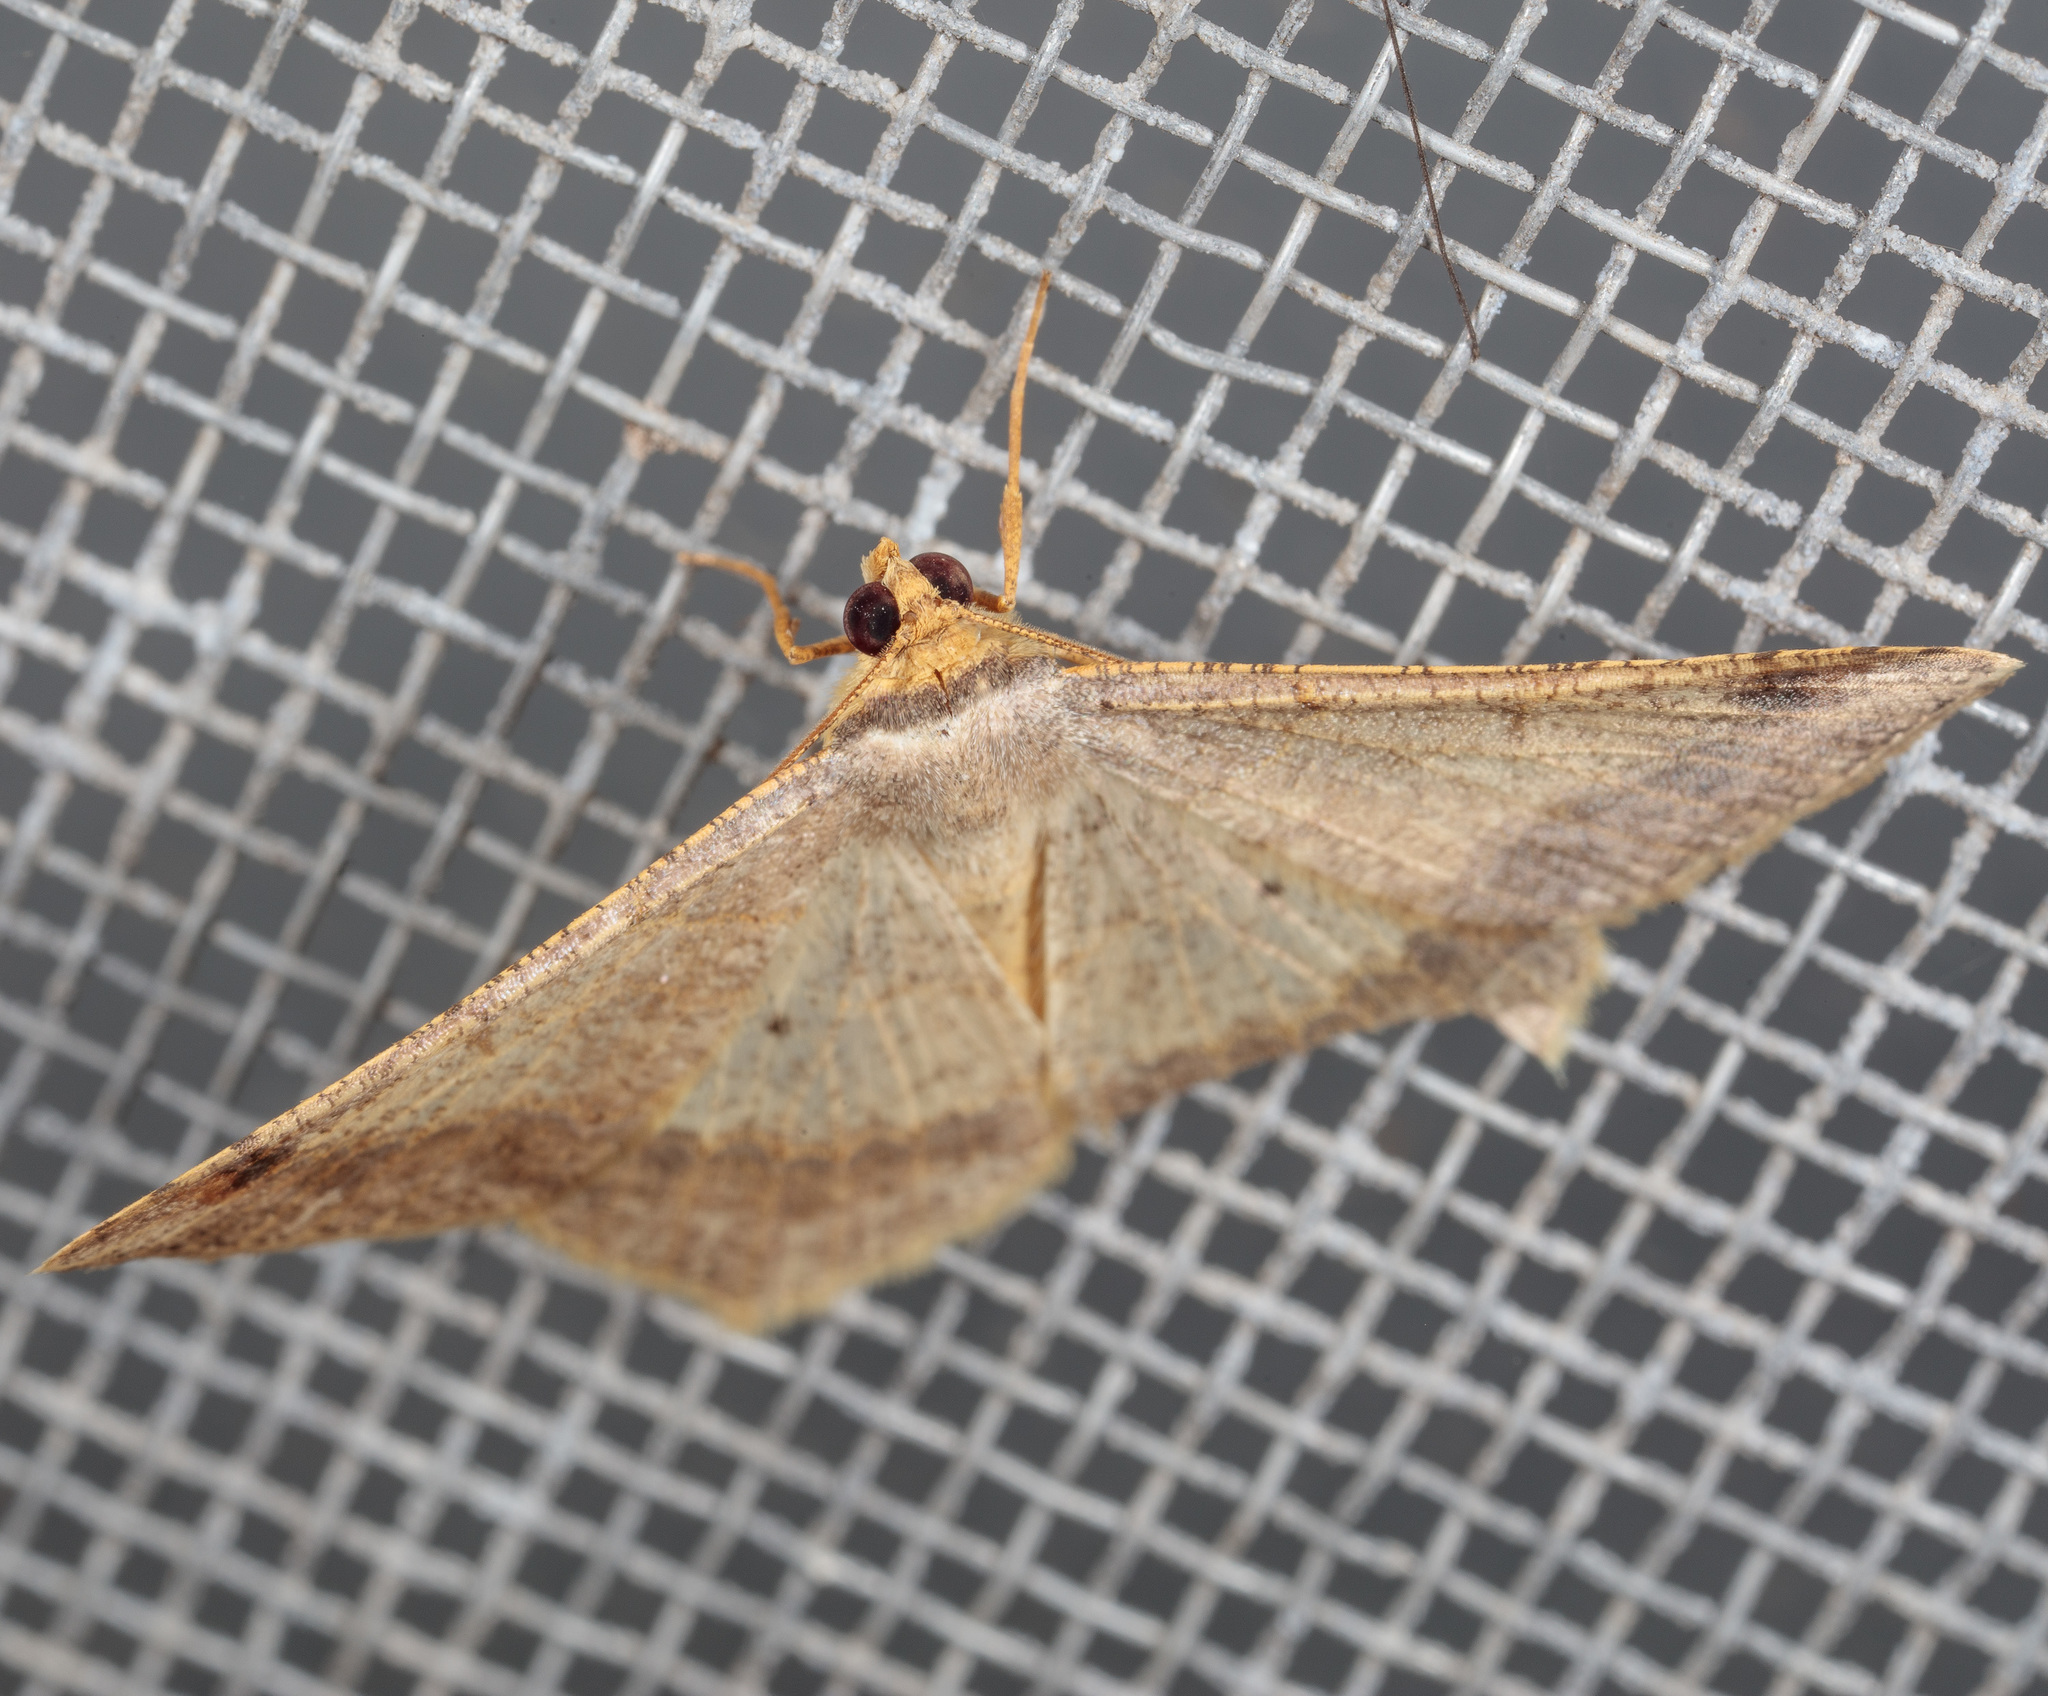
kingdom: Animalia
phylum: Arthropoda
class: Insecta
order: Lepidoptera
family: Geometridae
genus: Macaria
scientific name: Macaria abydata
